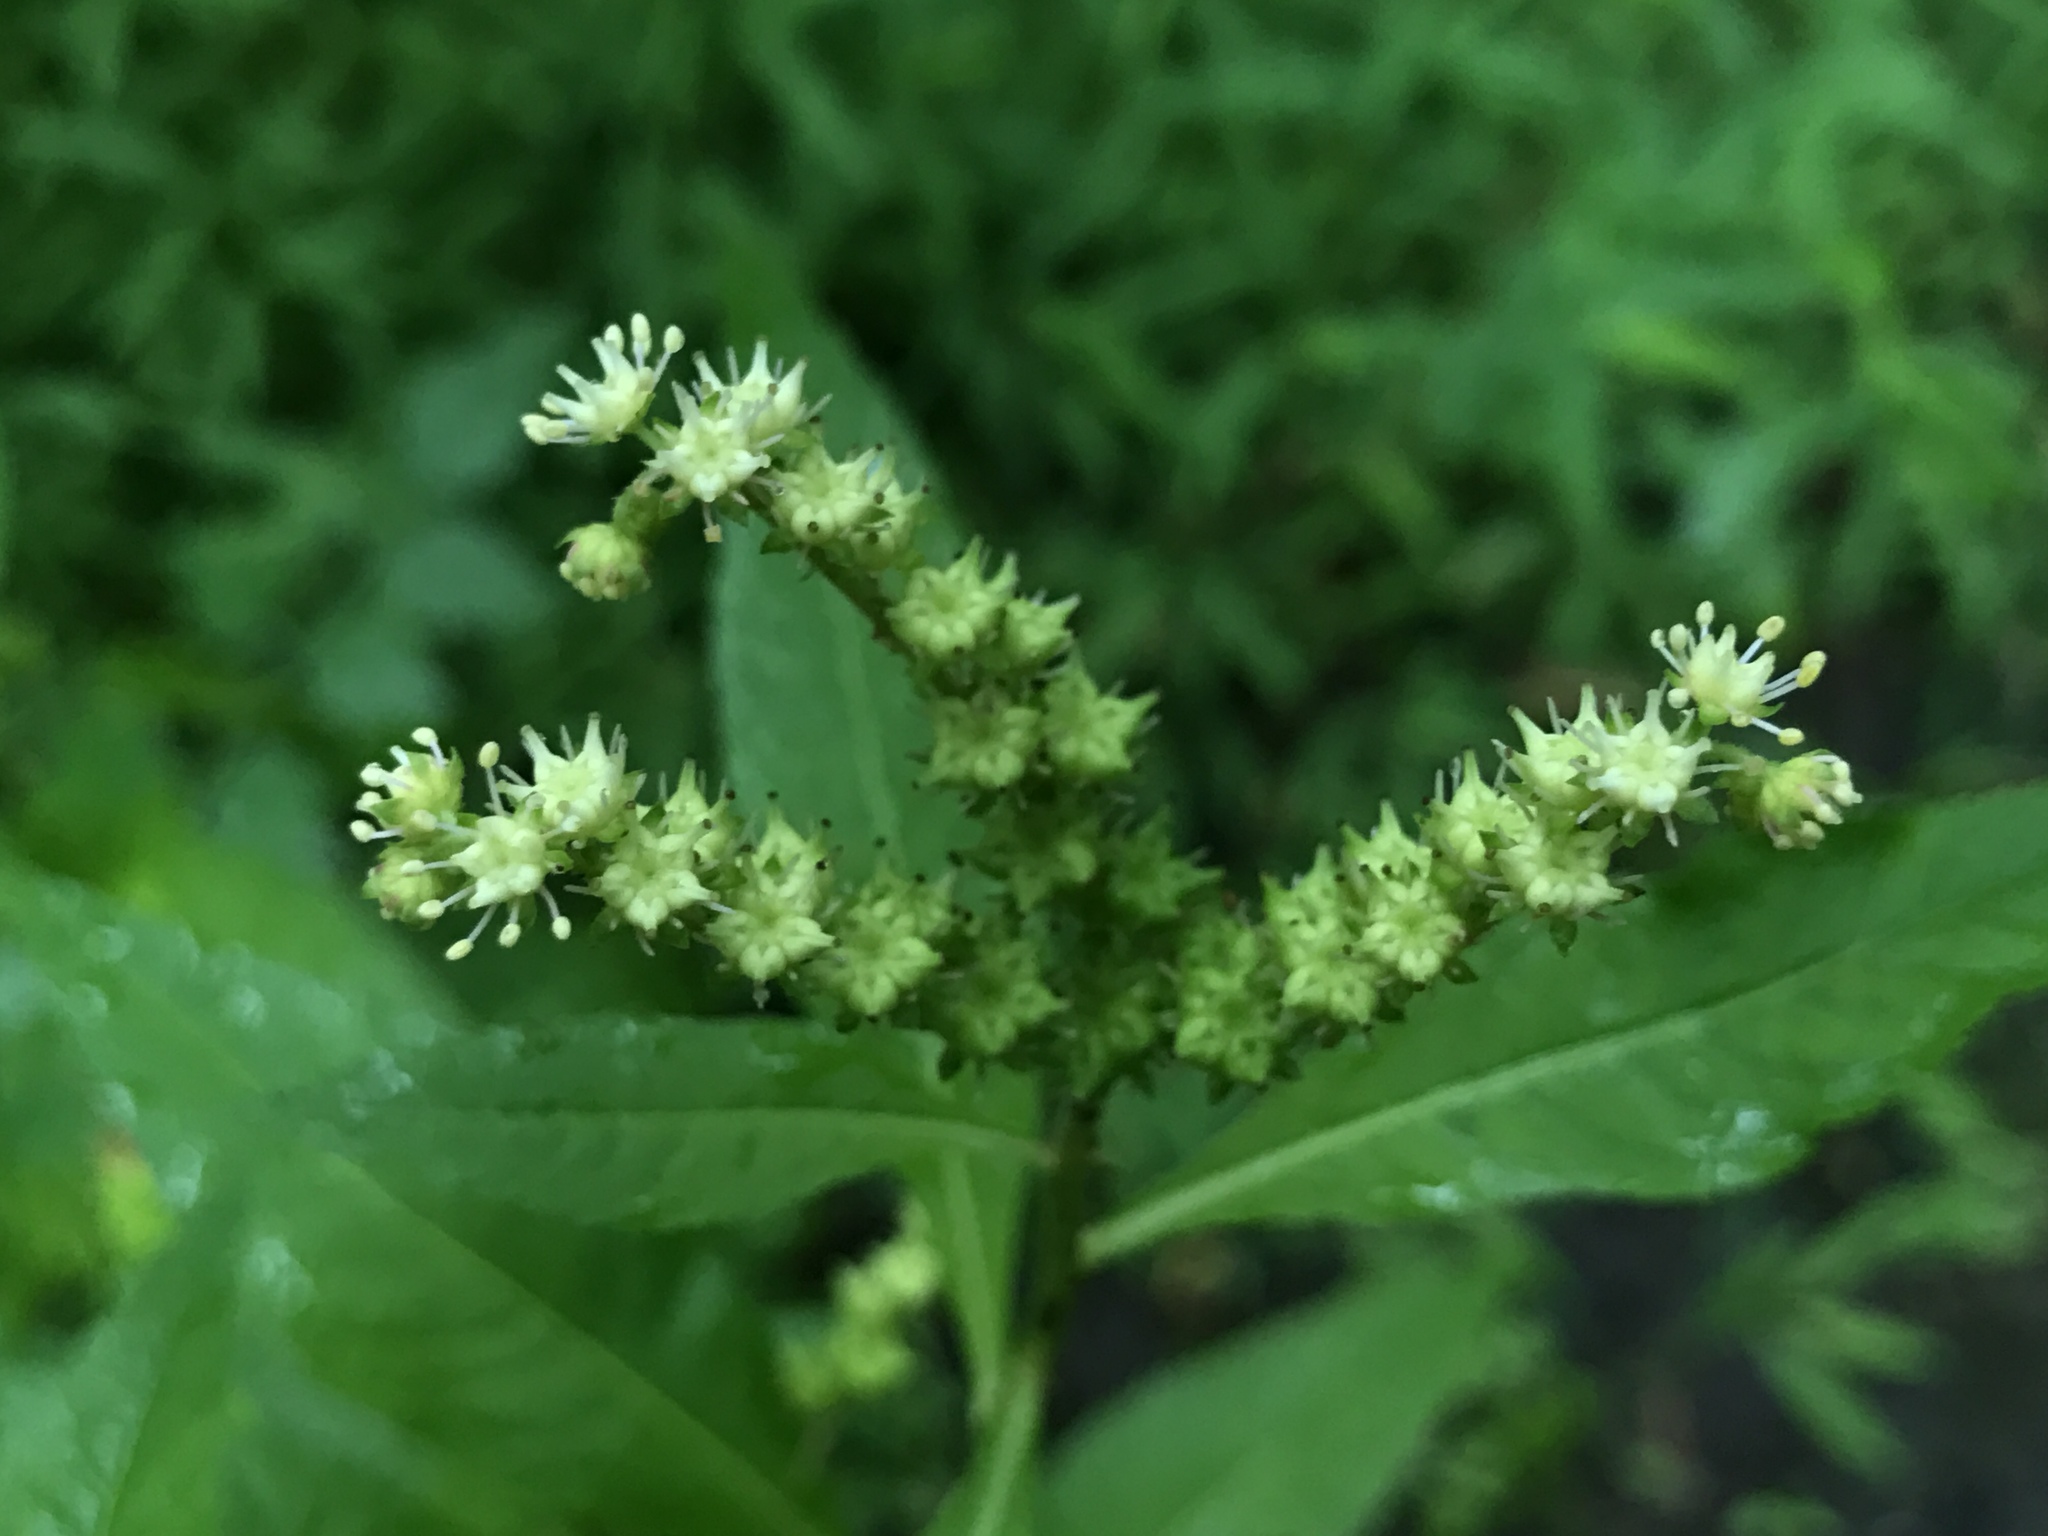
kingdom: Plantae
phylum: Tracheophyta
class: Magnoliopsida
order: Saxifragales
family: Penthoraceae
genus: Penthorum
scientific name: Penthorum sedoides
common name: Ditch stonecrop
